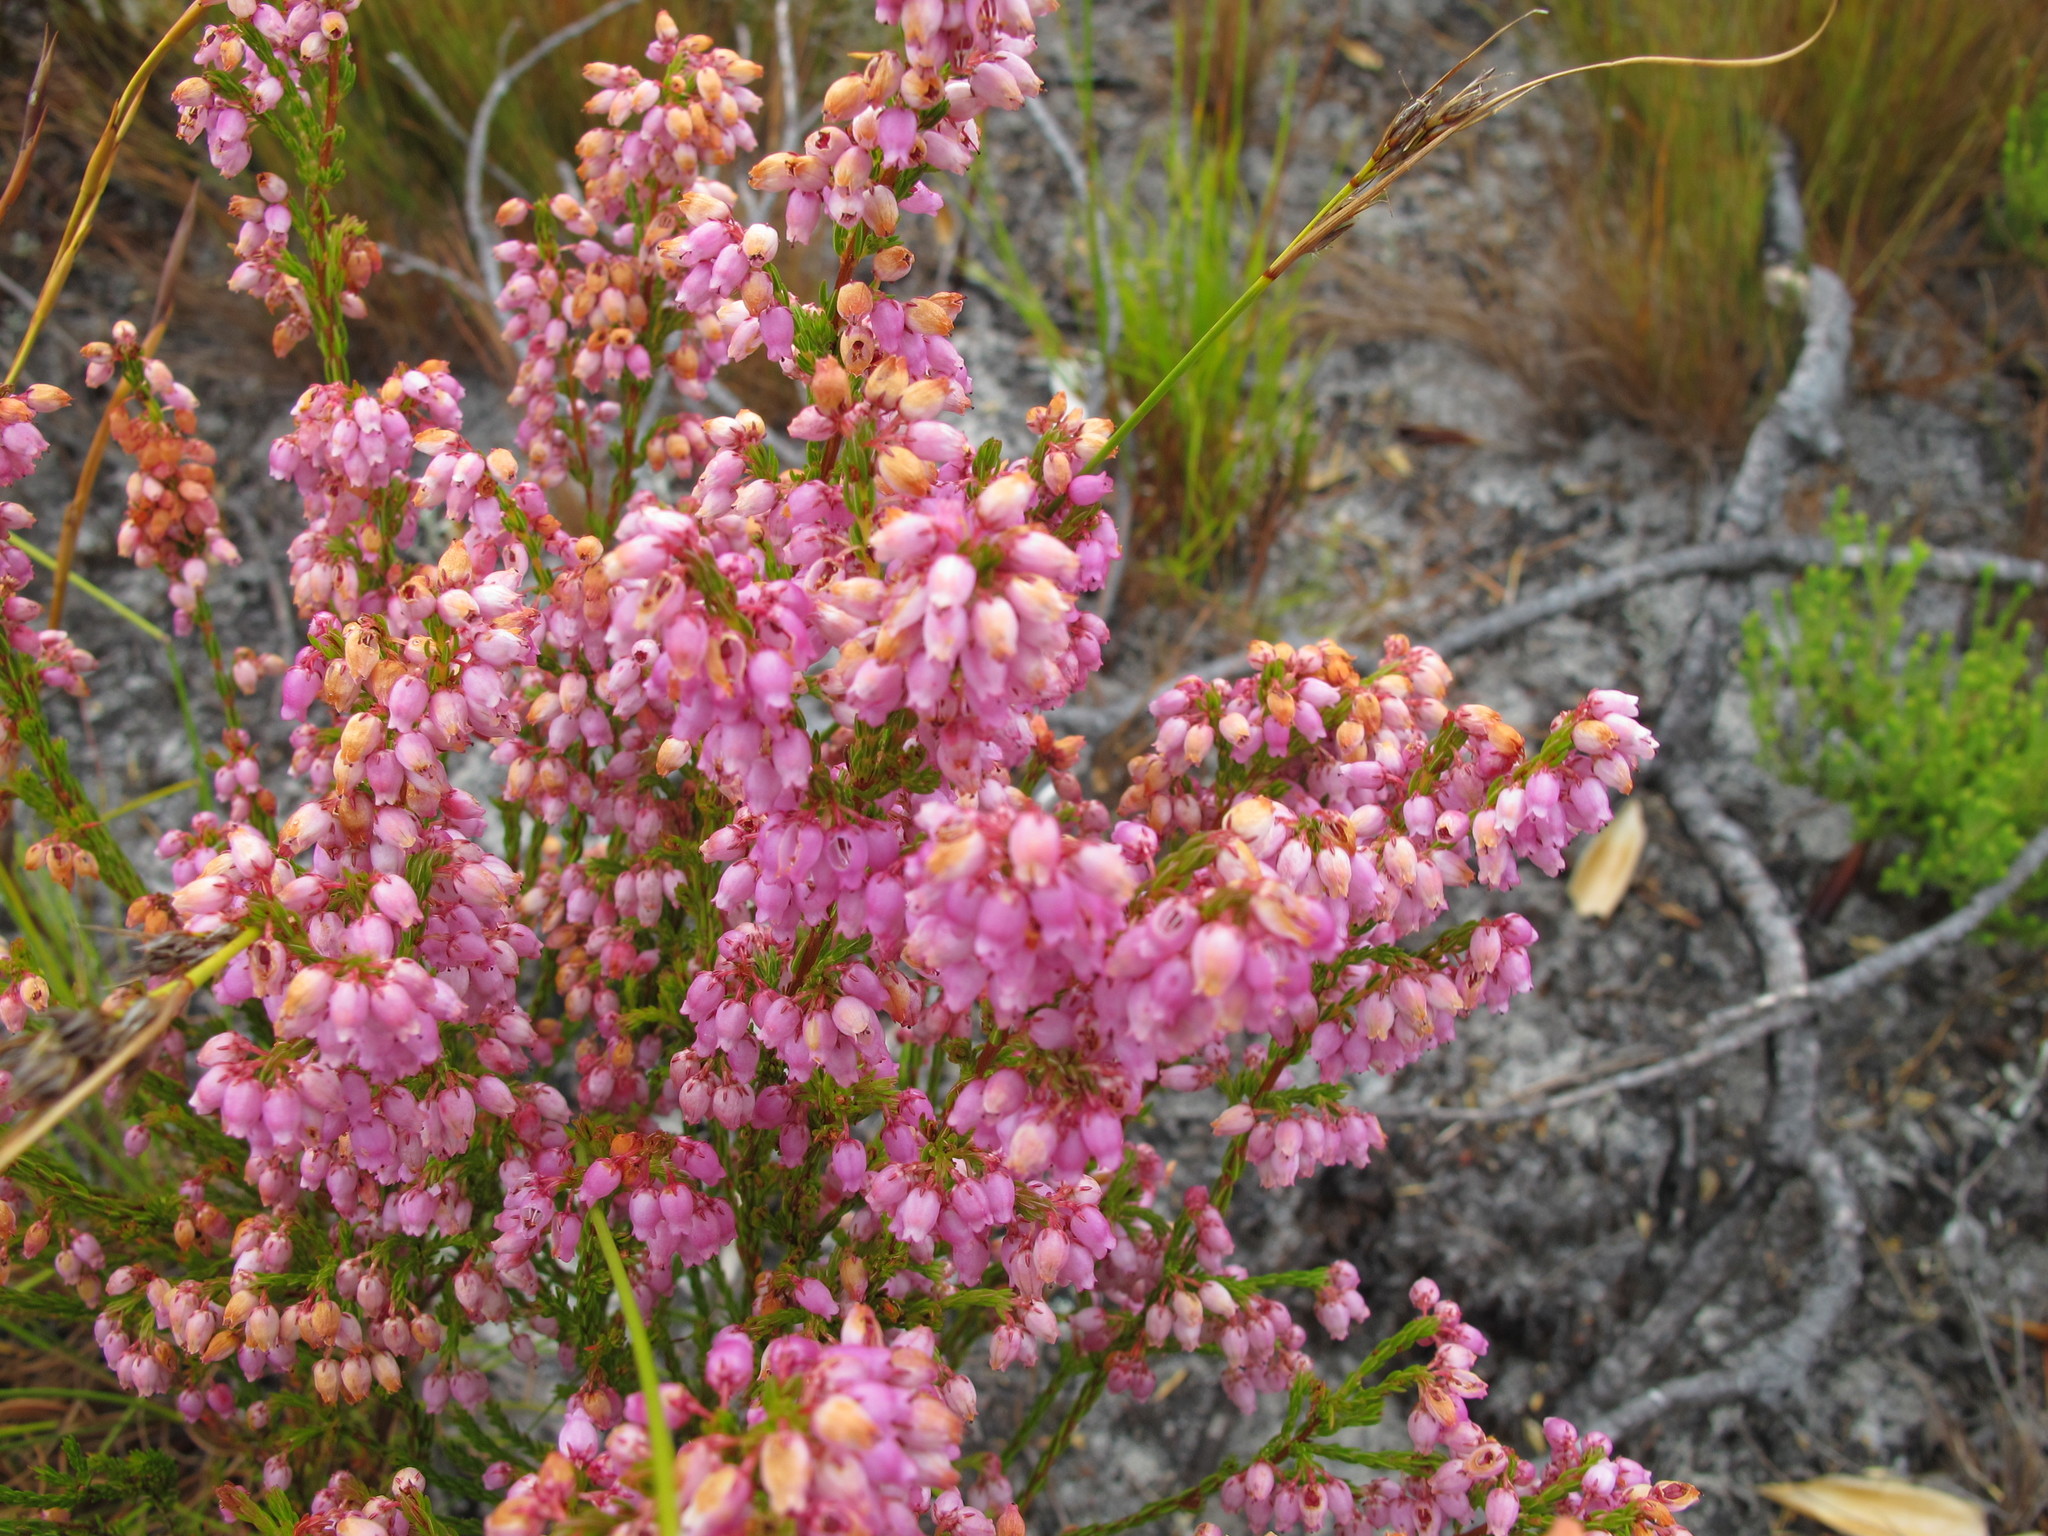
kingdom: Plantae
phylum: Tracheophyta
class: Magnoliopsida
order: Ericales
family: Ericaceae
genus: Erica
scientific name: Erica laeta
